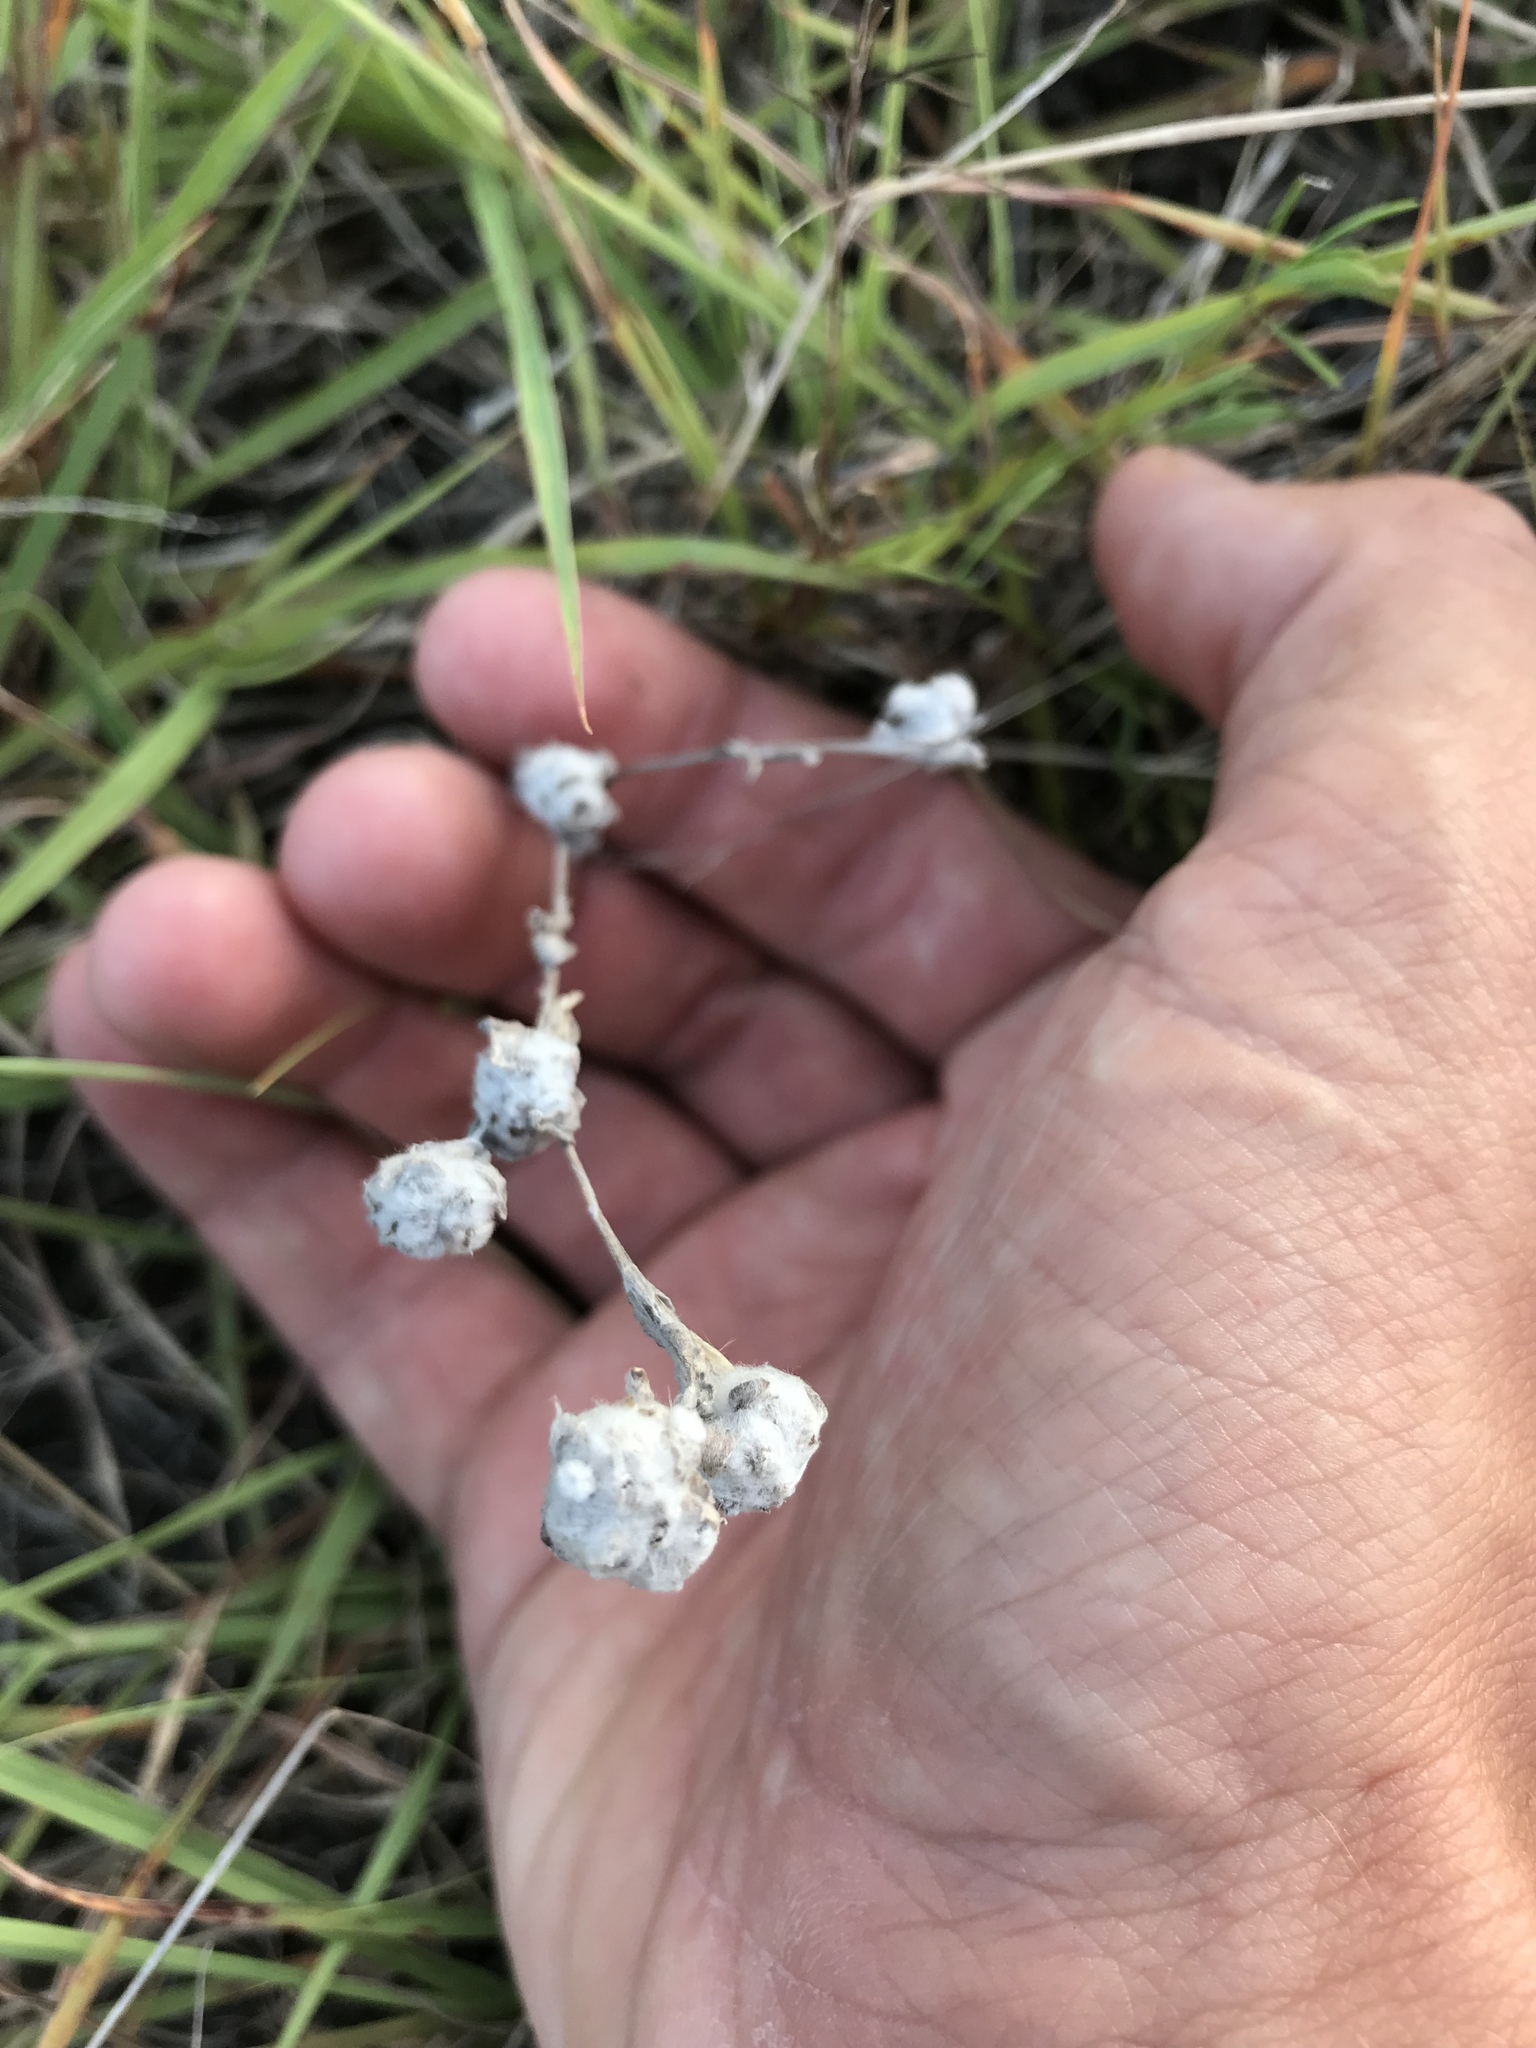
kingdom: Plantae
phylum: Tracheophyta
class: Magnoliopsida
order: Asterales
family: Asteraceae
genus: Diaperia
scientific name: Diaperia verna
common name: Many-stem rabbit-tobacco
